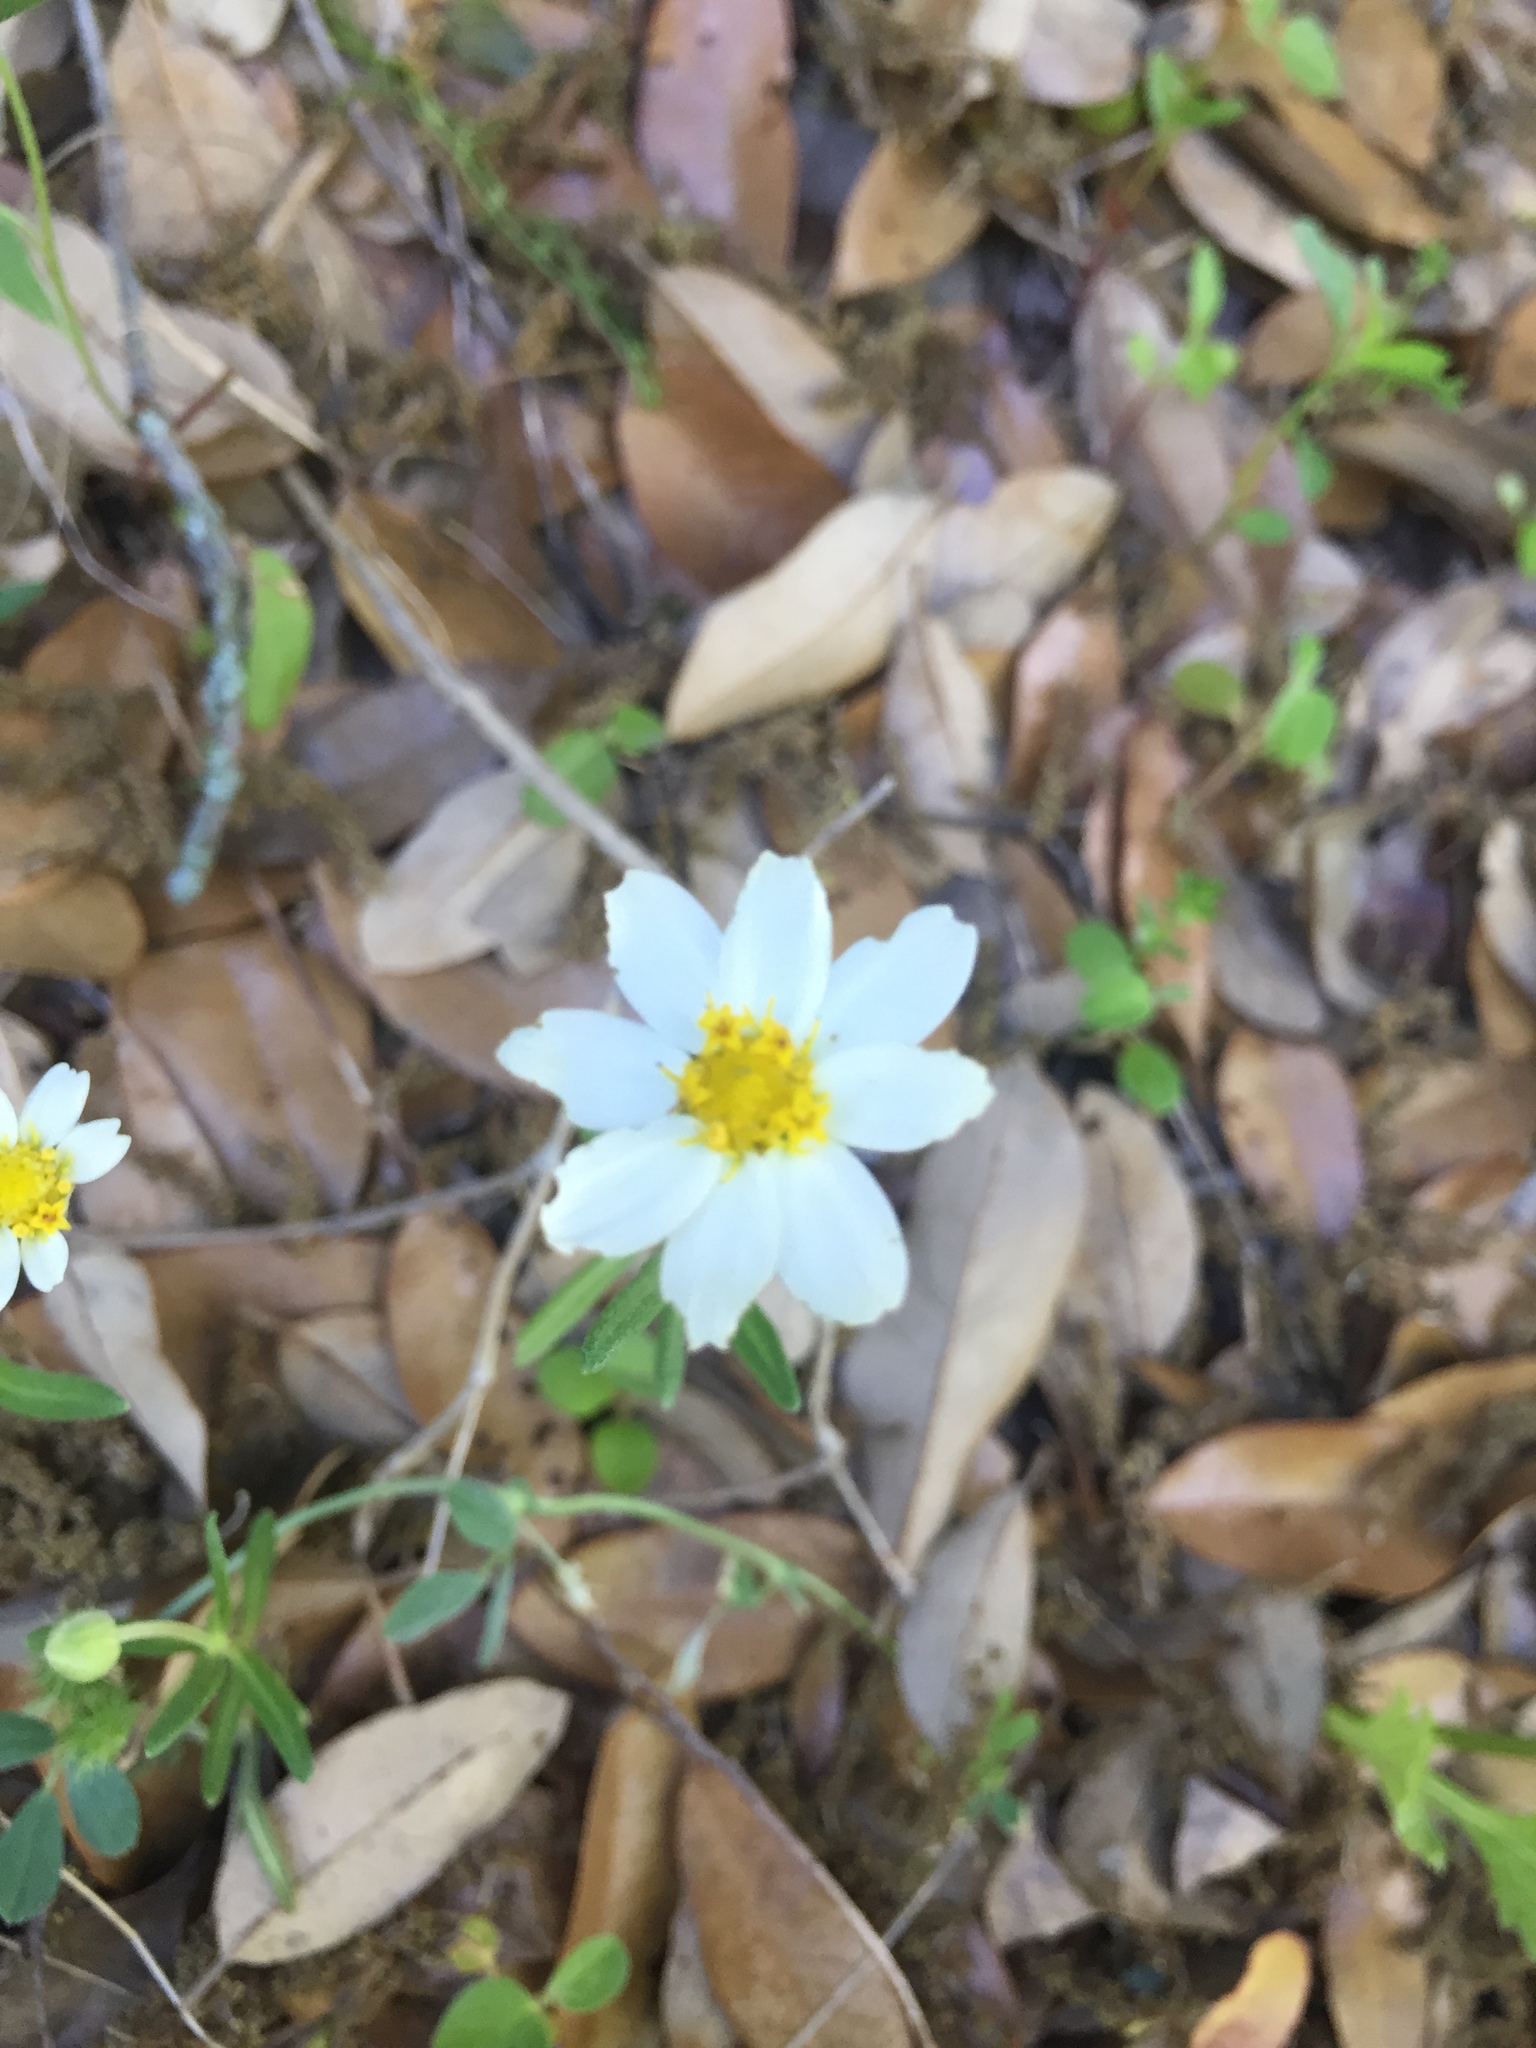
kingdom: Plantae
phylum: Tracheophyta
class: Magnoliopsida
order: Asterales
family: Asteraceae
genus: Melampodium
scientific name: Melampodium leucanthum
